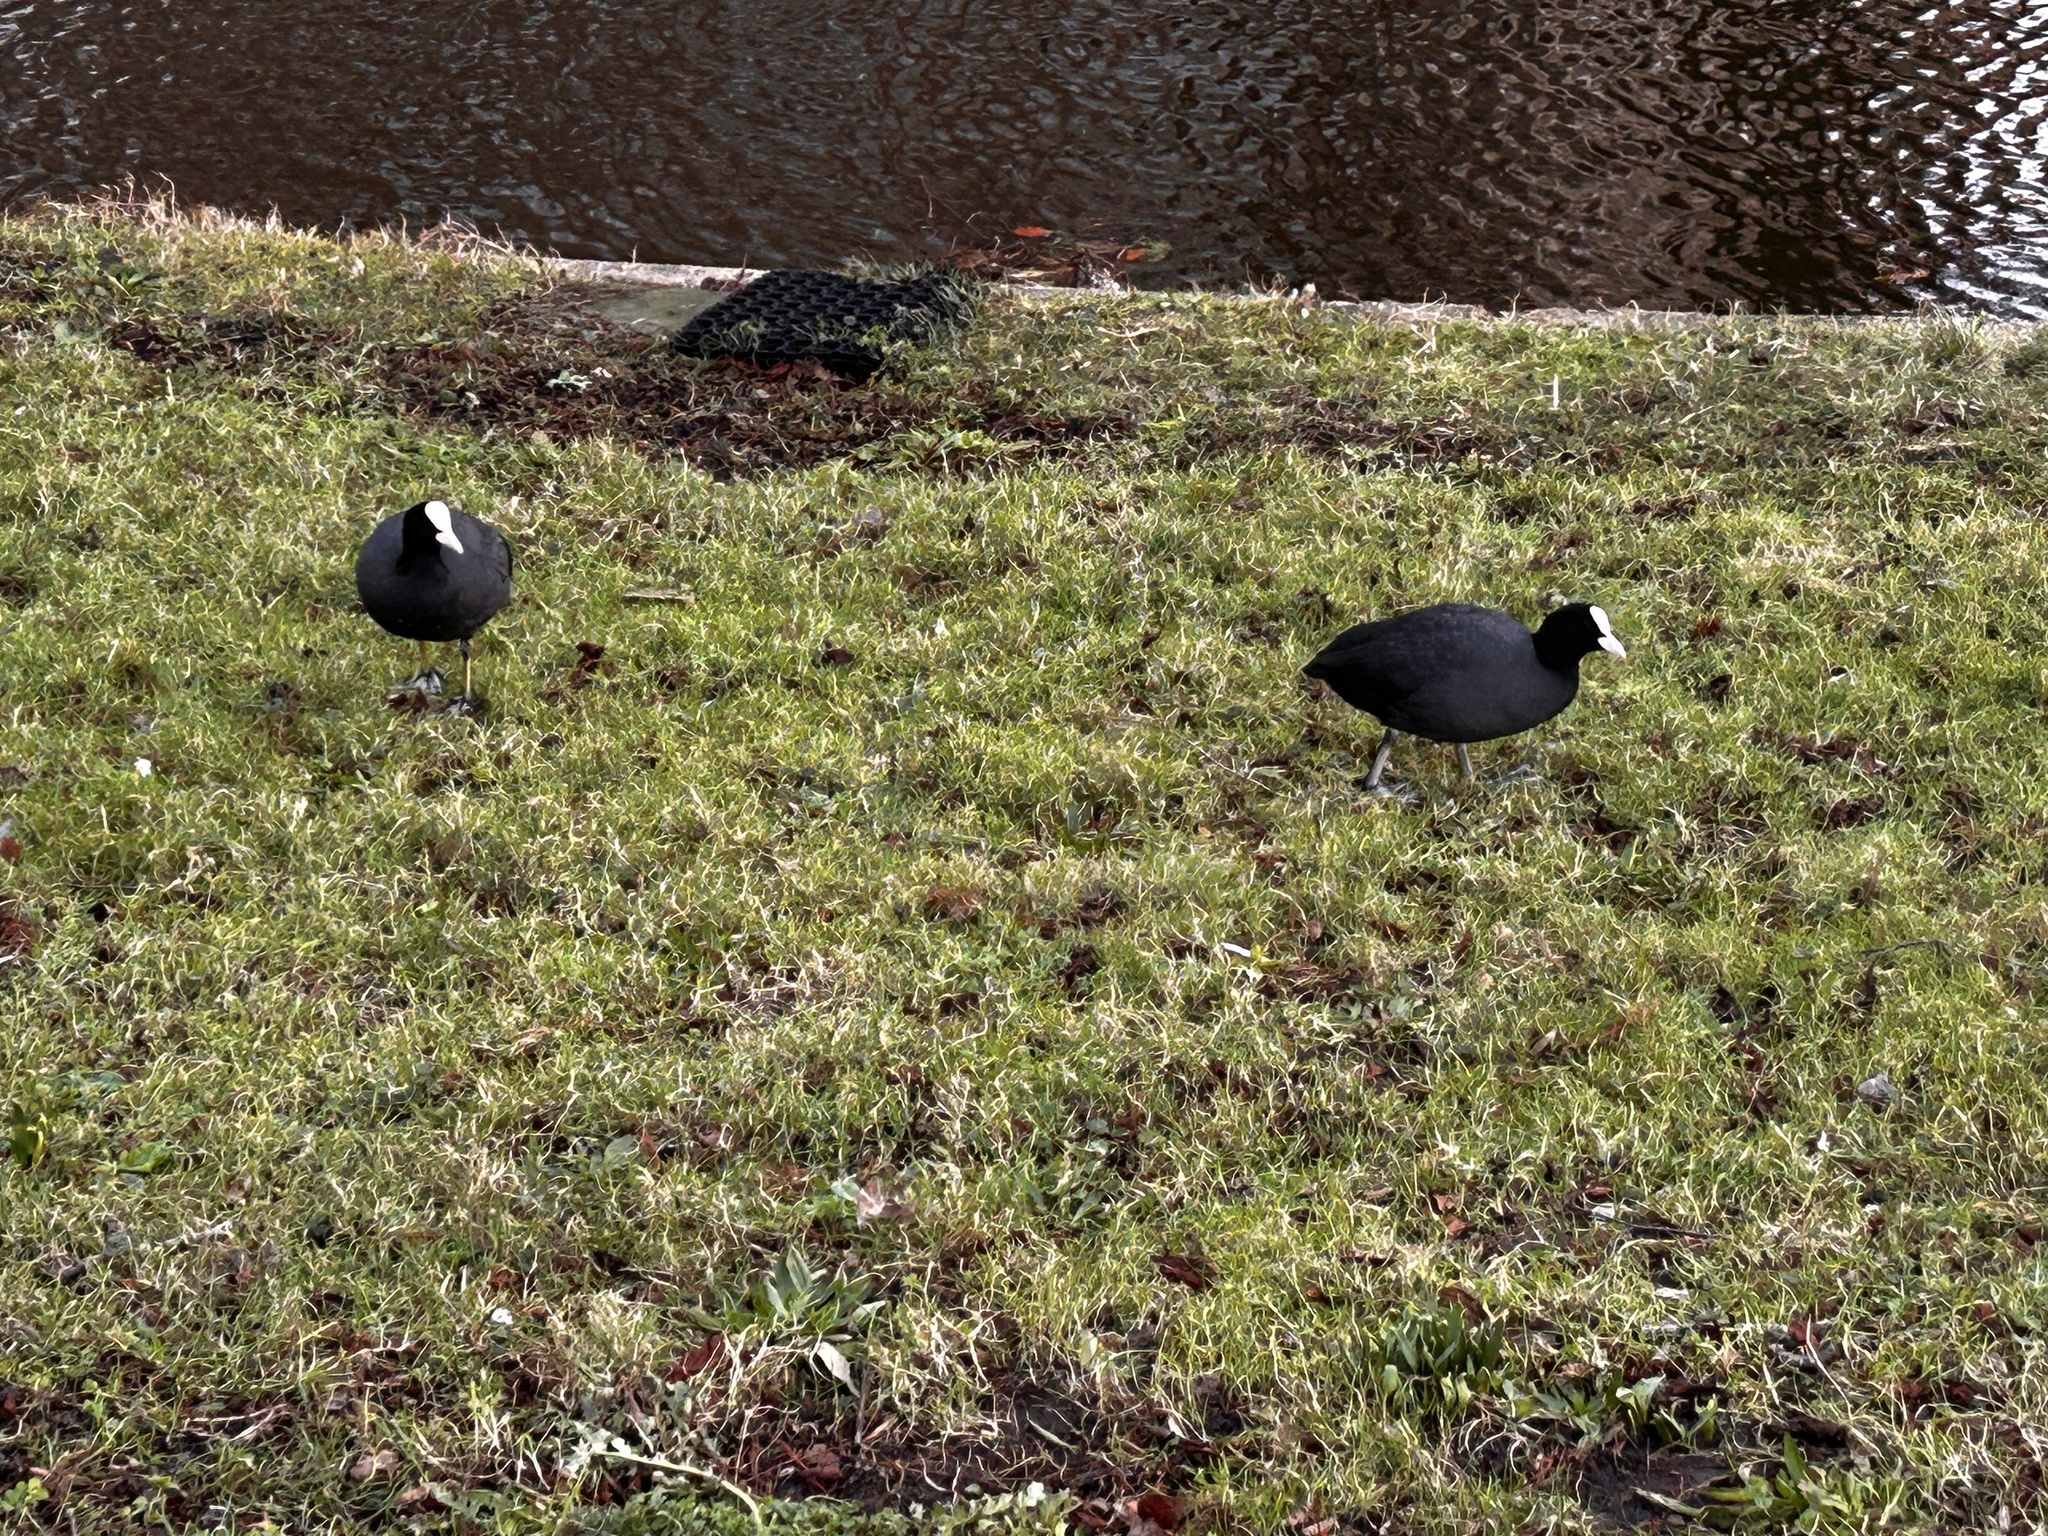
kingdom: Animalia
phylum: Chordata
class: Aves
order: Gruiformes
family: Rallidae
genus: Fulica
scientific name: Fulica atra
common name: Eurasian coot
